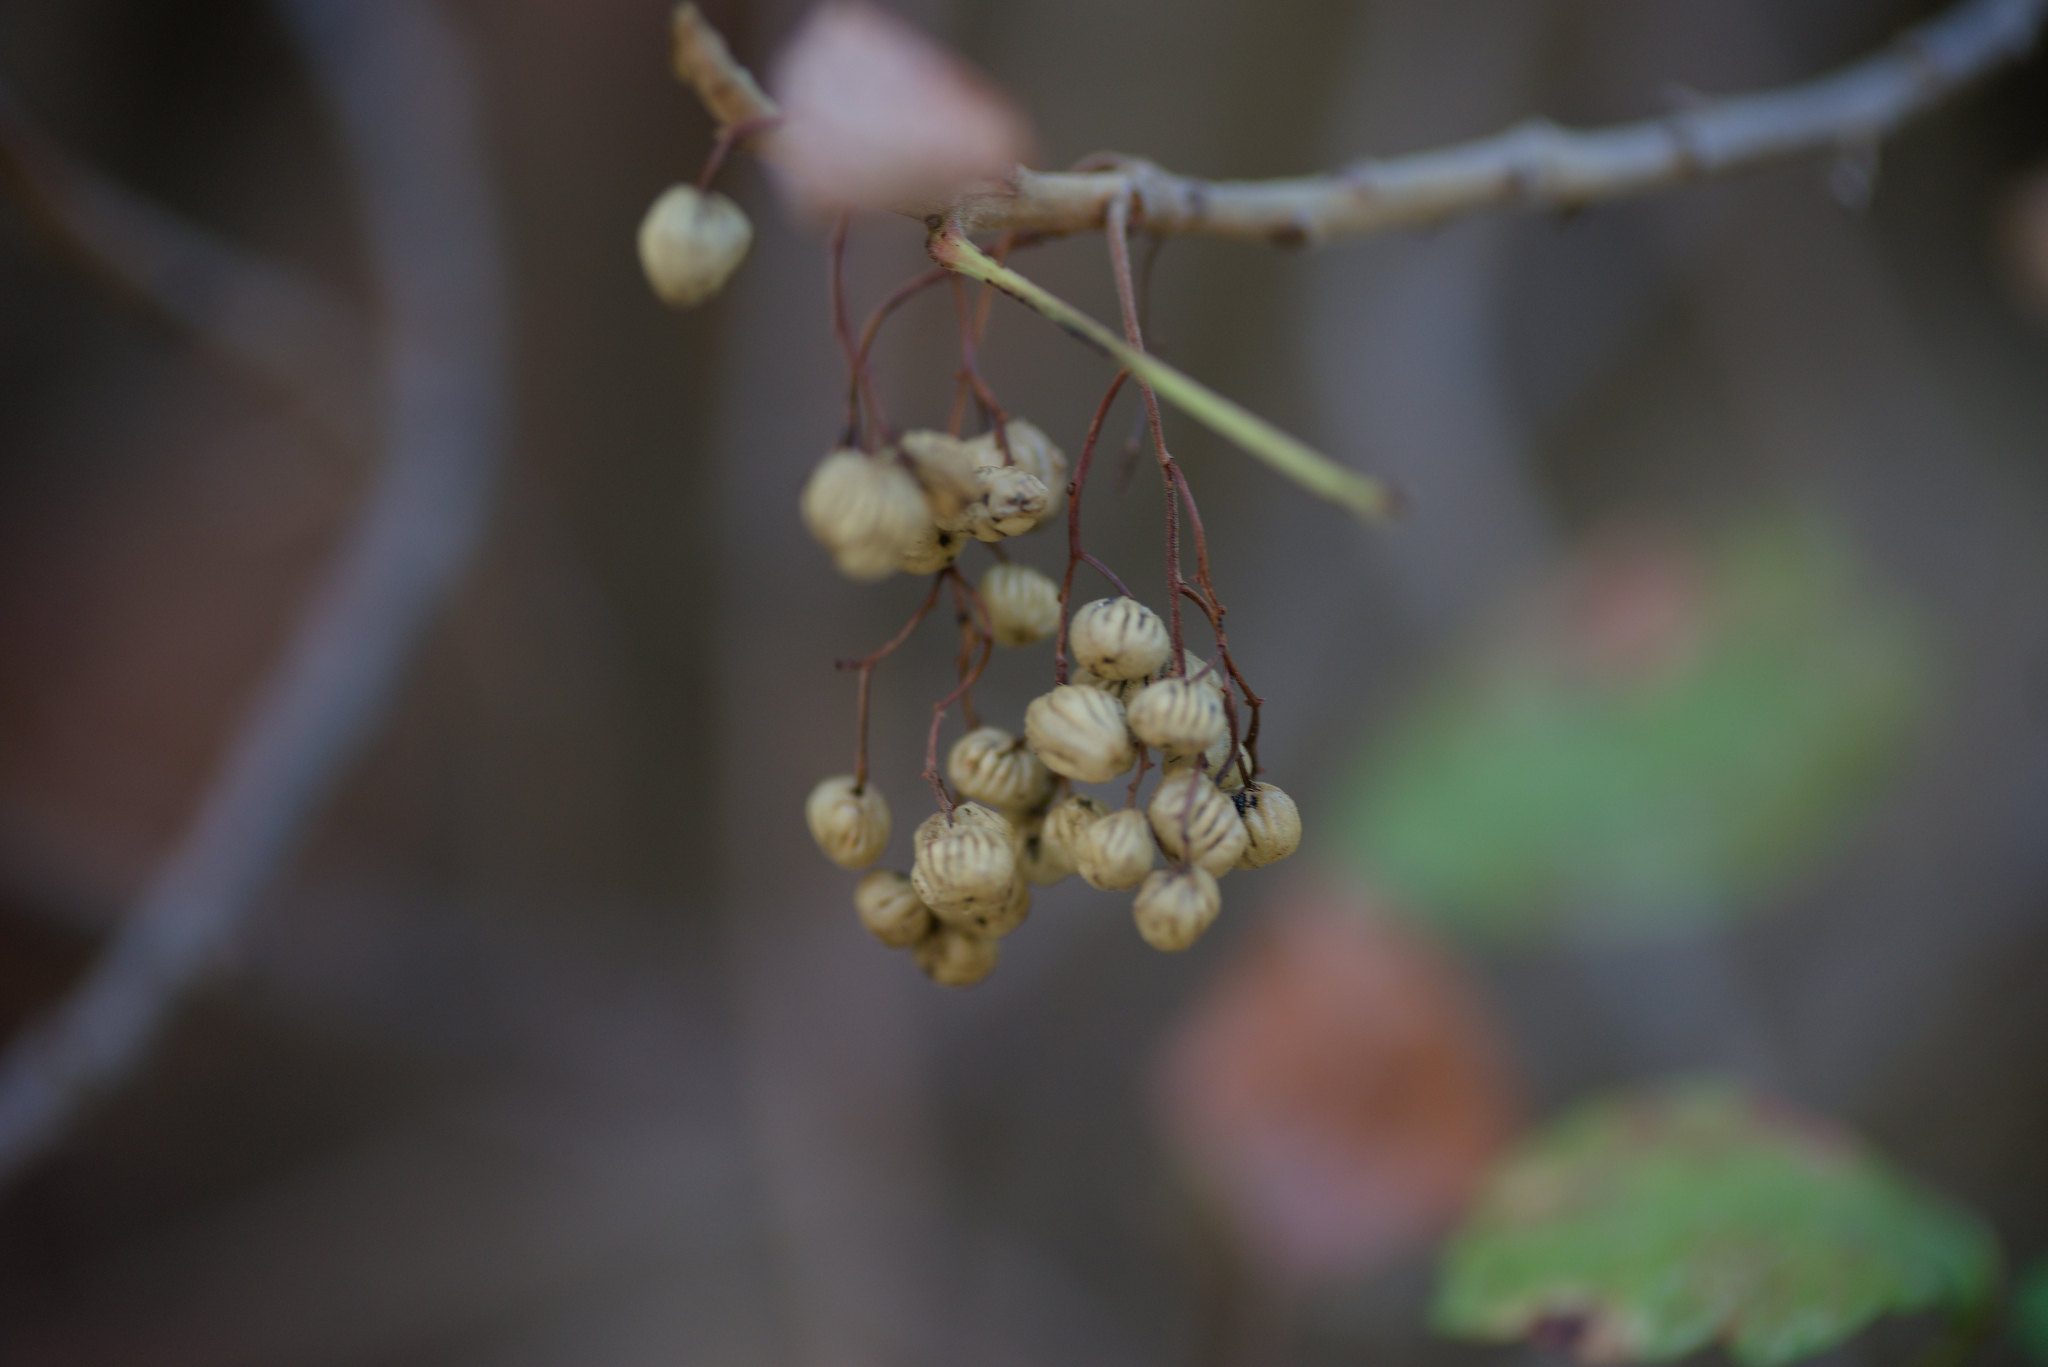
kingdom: Plantae
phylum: Tracheophyta
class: Magnoliopsida
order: Sapindales
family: Anacardiaceae
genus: Toxicodendron
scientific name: Toxicodendron diversilobum
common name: Pacific poison-oak
